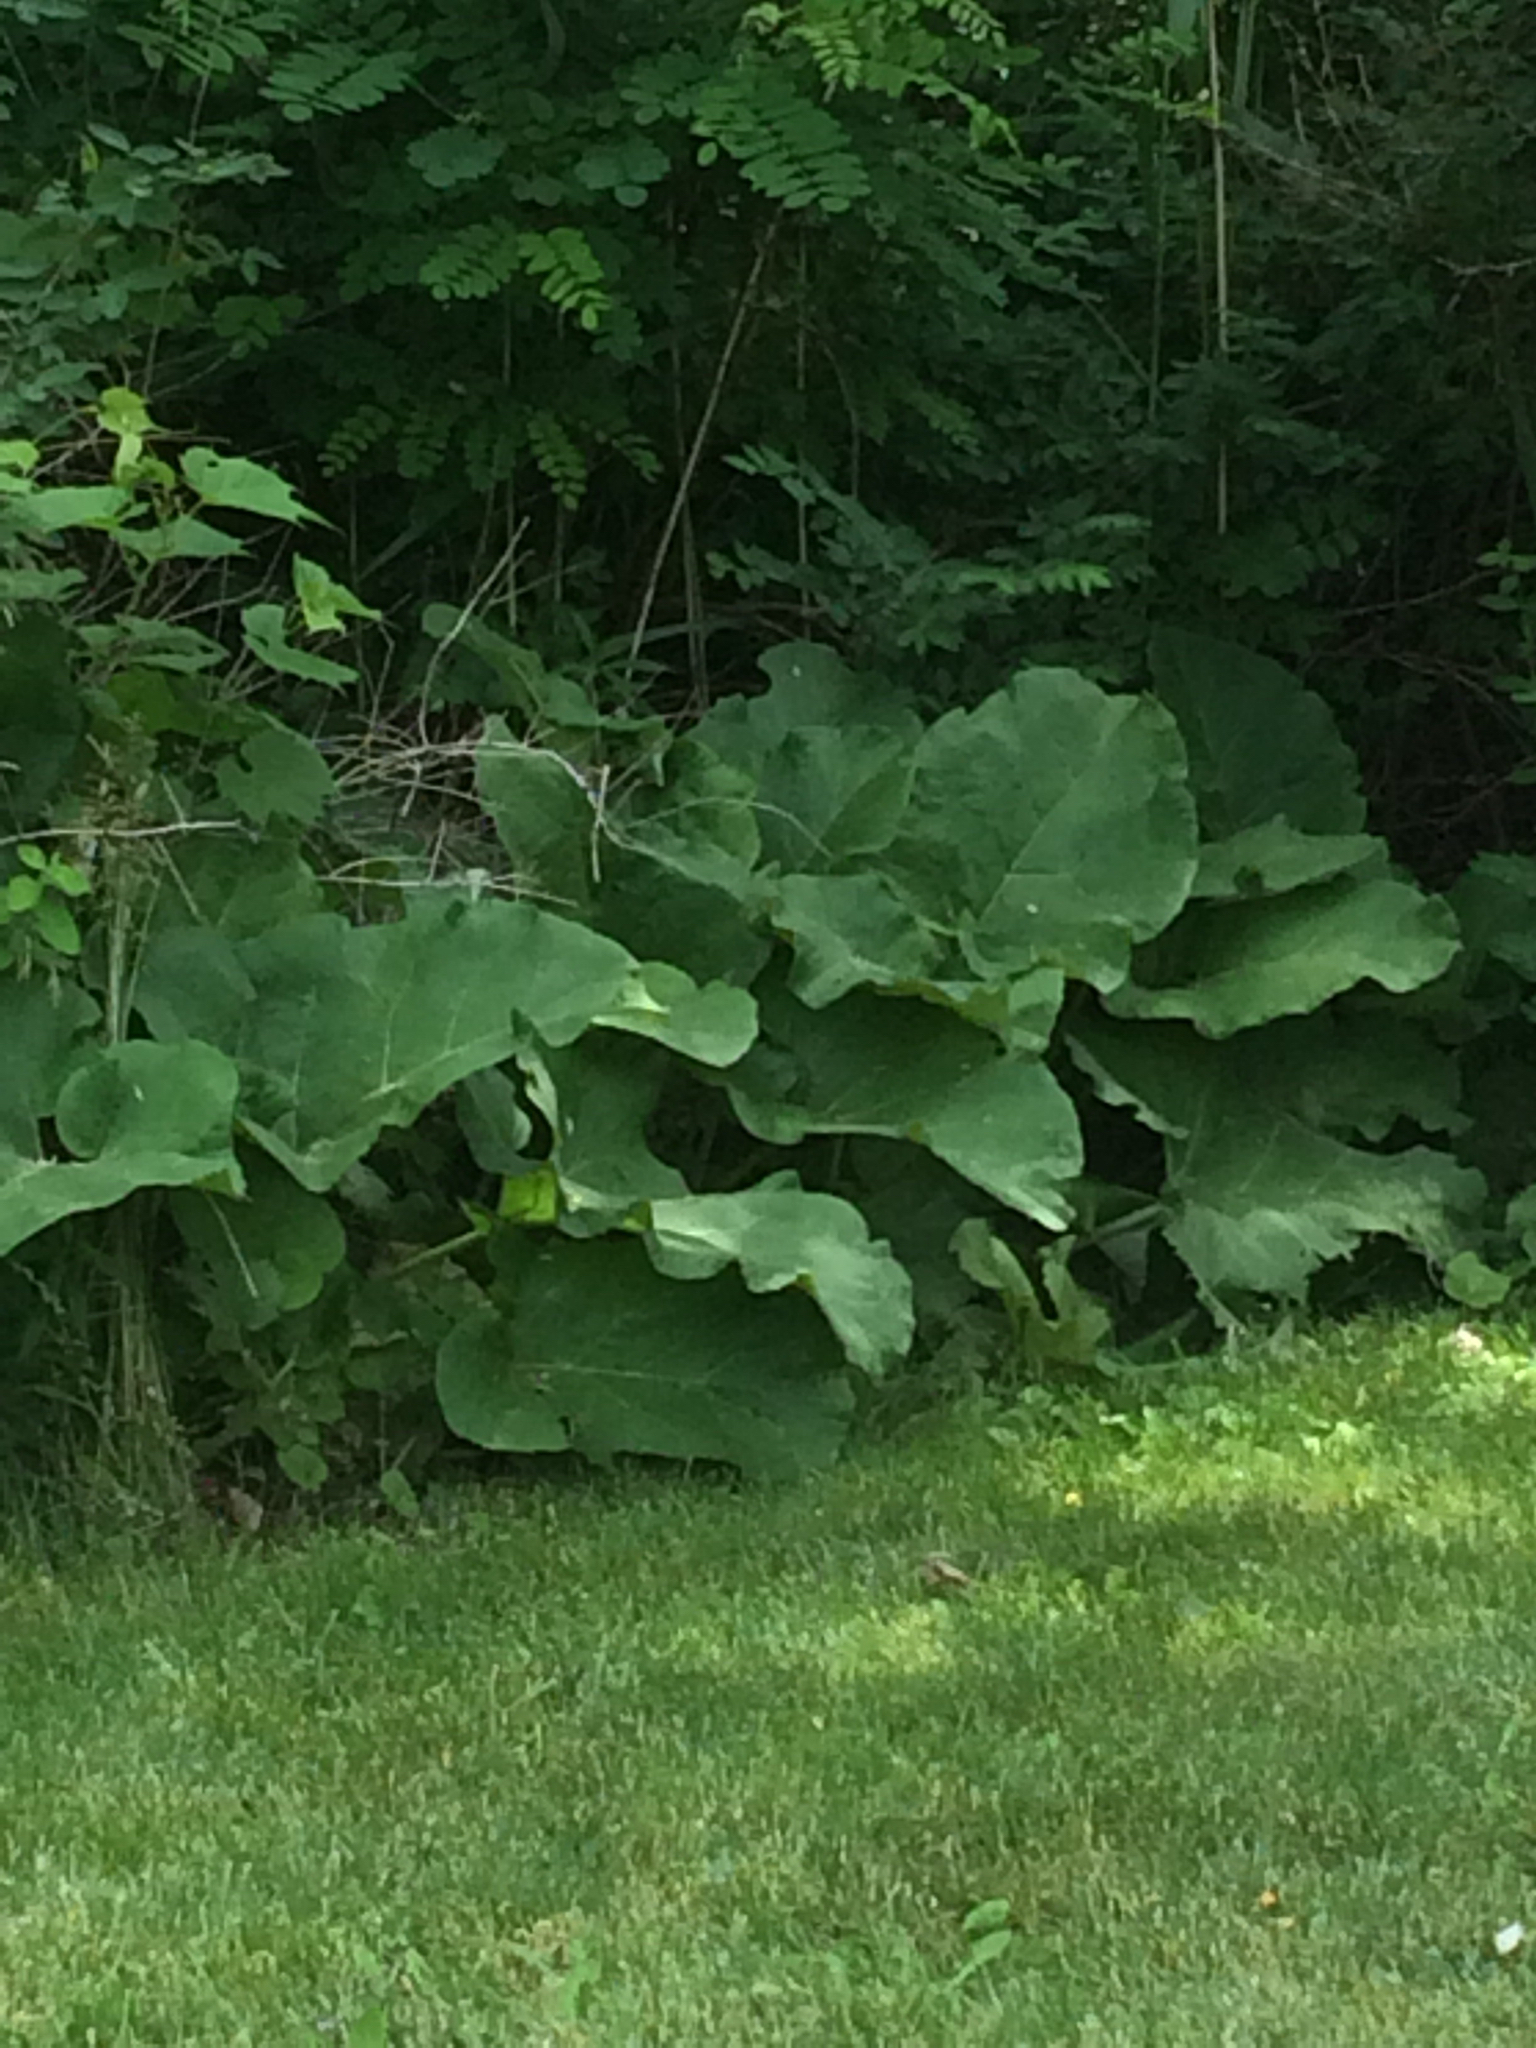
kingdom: Plantae
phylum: Tracheophyta
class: Magnoliopsida
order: Asterales
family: Asteraceae
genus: Arctium
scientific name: Arctium lappa
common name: Greater burdock
